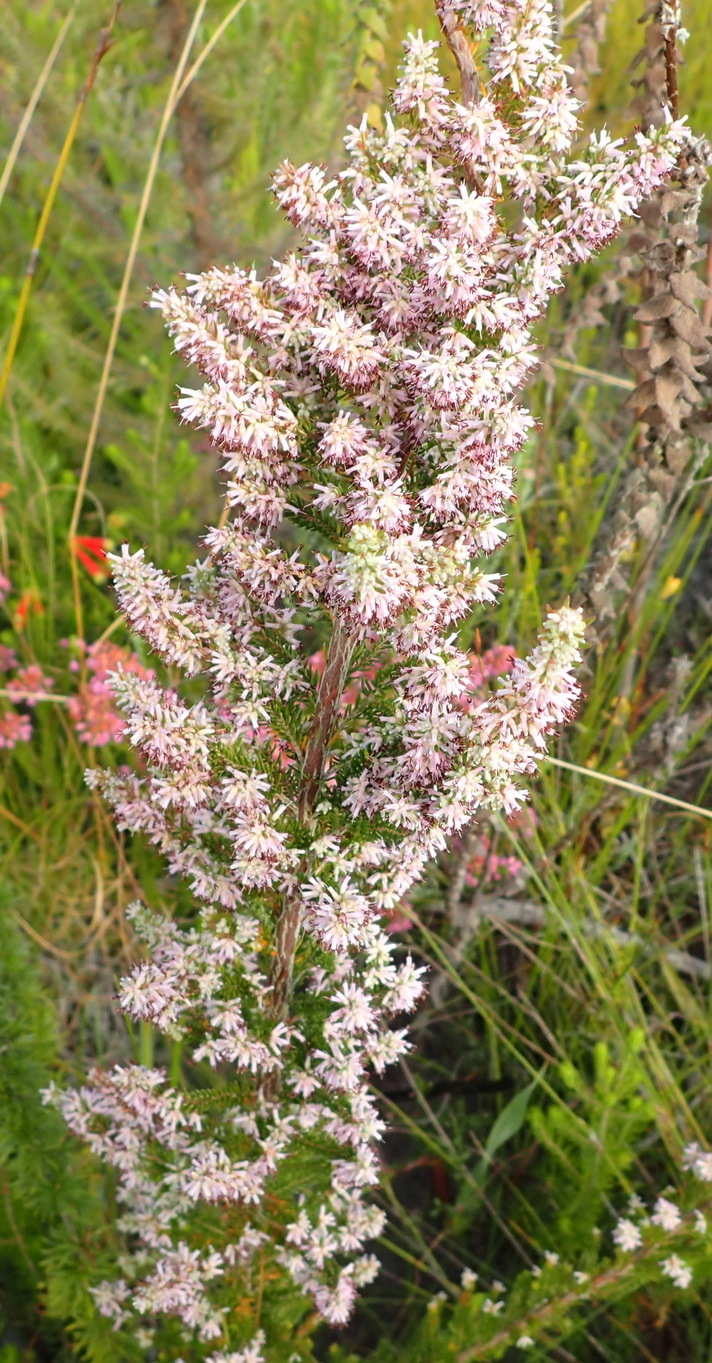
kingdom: Plantae
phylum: Tracheophyta
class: Magnoliopsida
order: Ericales
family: Ericaceae
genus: Erica
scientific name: Erica sparsa
